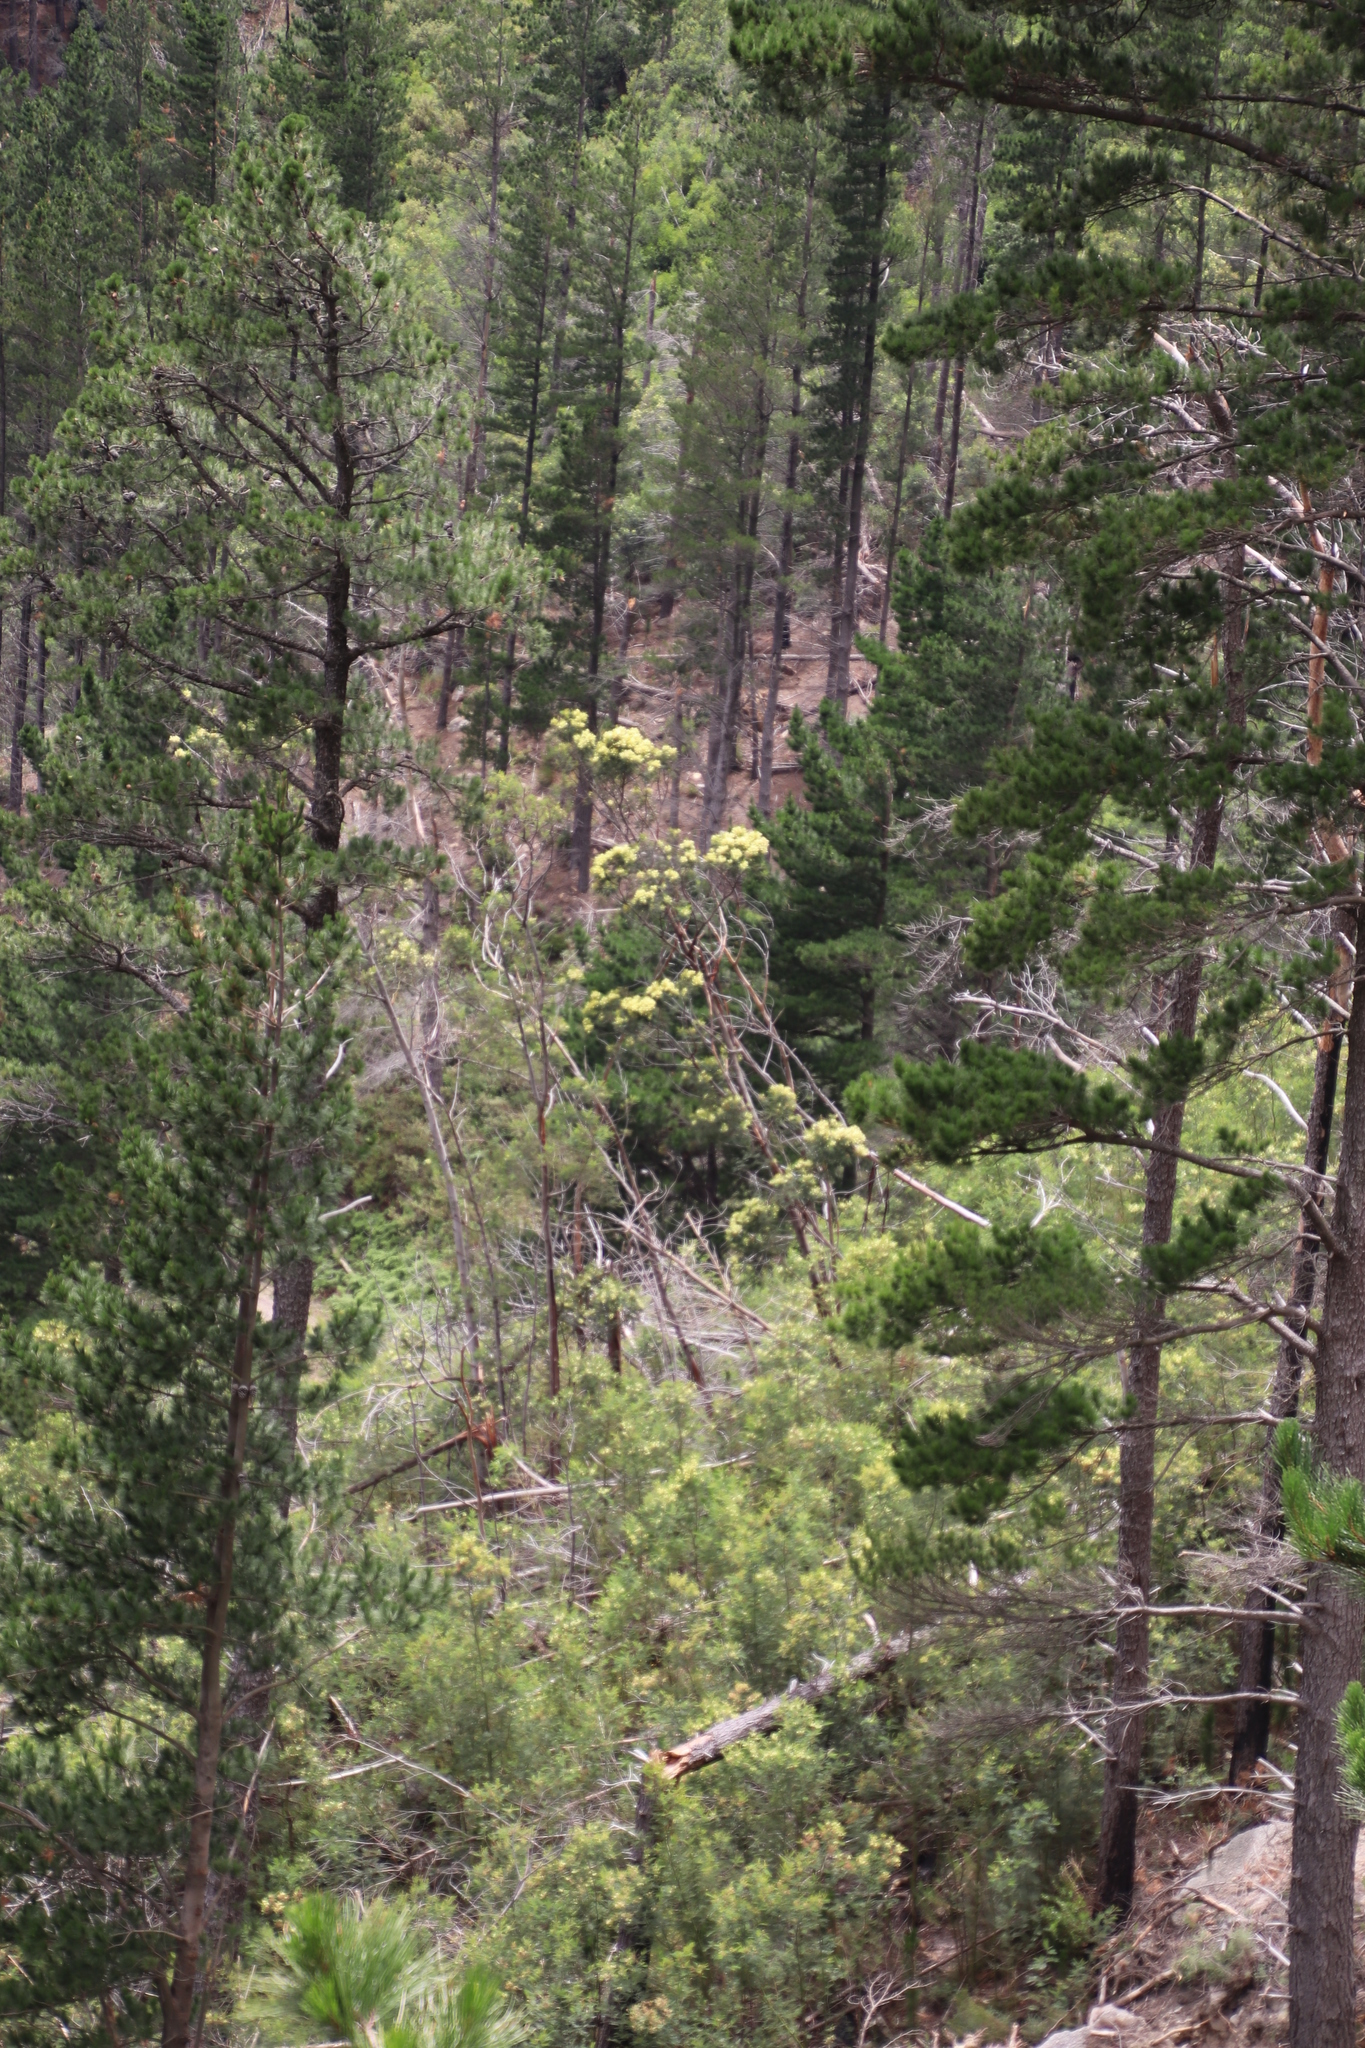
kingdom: Plantae
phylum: Tracheophyta
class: Magnoliopsida
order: Fabales
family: Fabaceae
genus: Acacia
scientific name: Acacia mearnsii
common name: Black wattle
